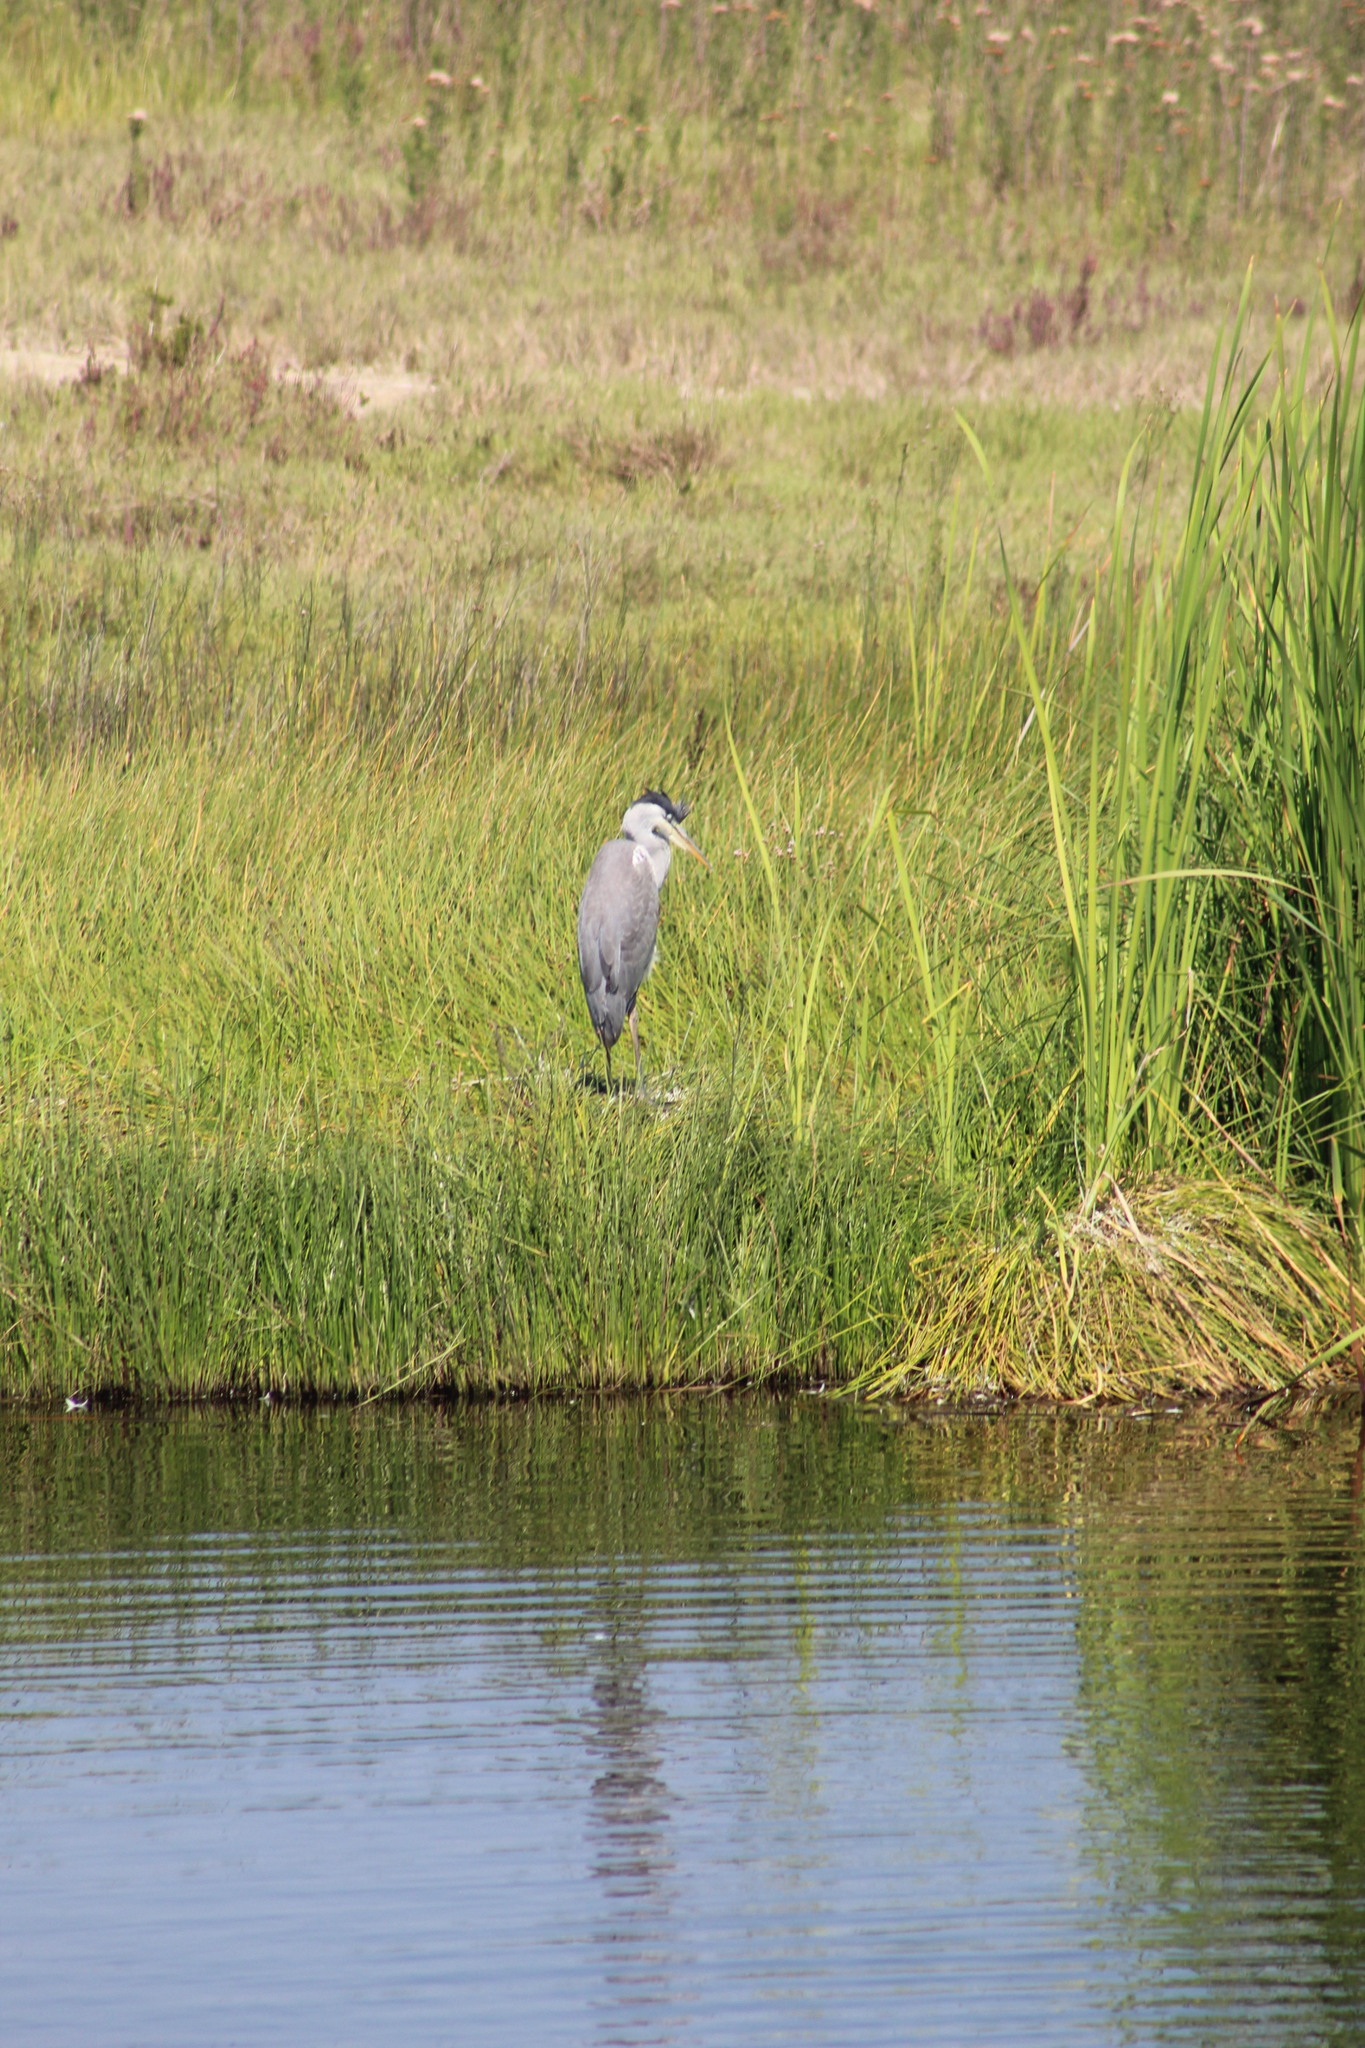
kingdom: Animalia
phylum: Chordata
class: Aves
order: Pelecaniformes
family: Ardeidae
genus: Ardea
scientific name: Ardea cocoi
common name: Cocoi heron
